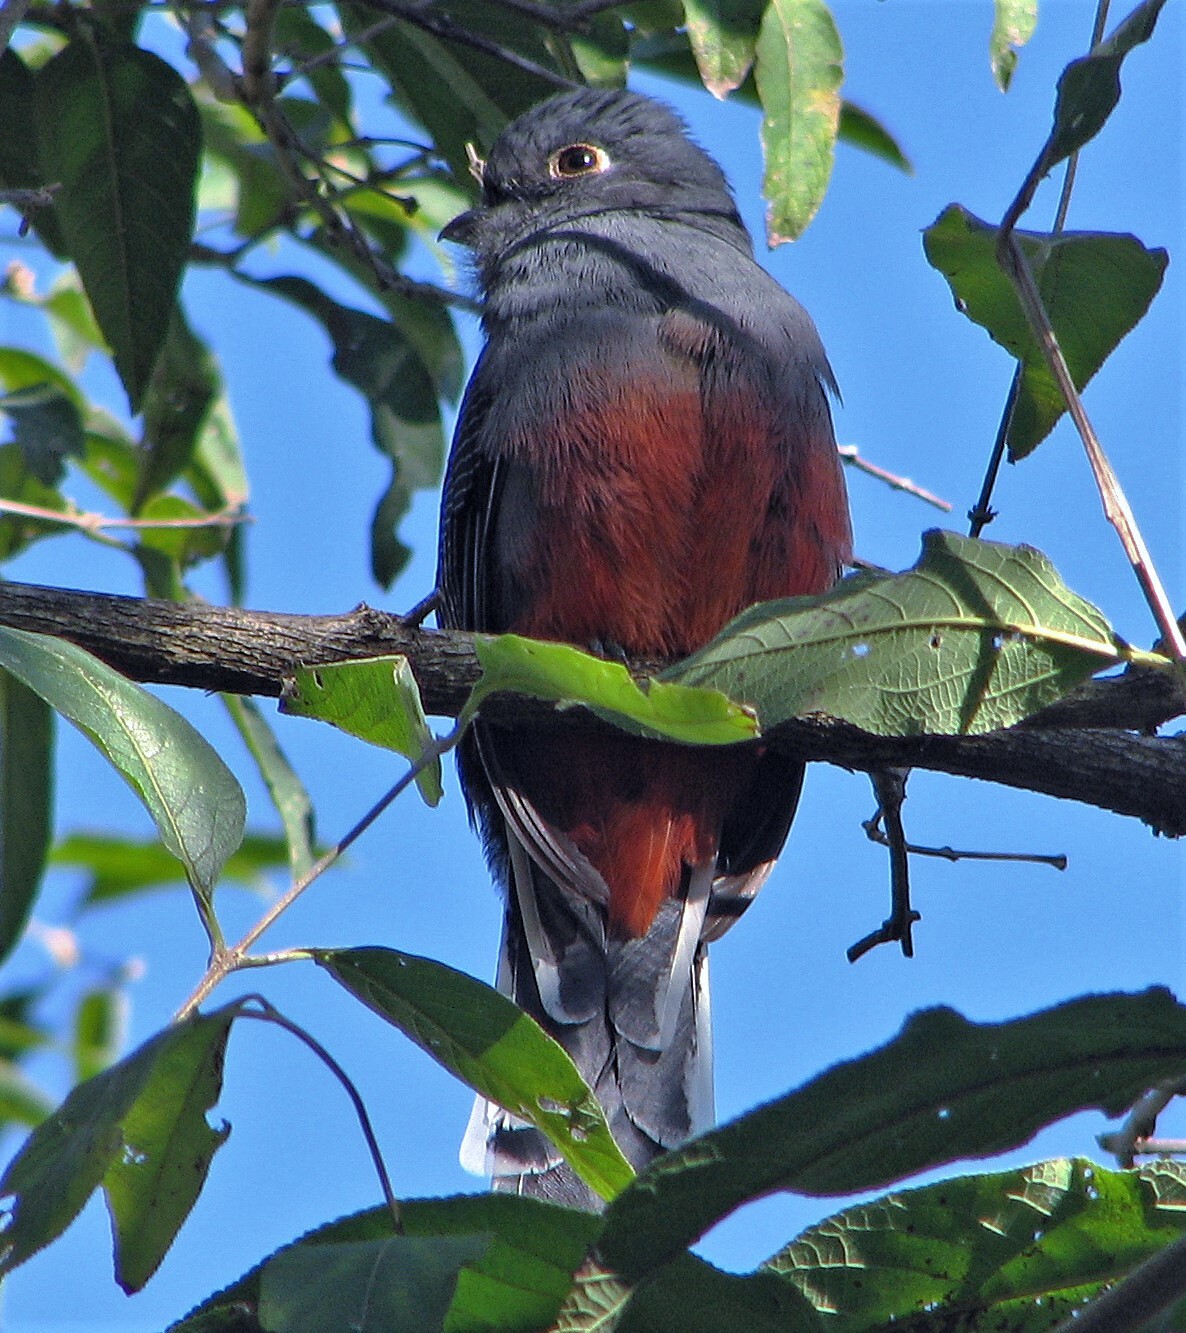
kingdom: Animalia
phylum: Chordata
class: Aves
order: Trogoniformes
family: Trogonidae
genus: Trogon
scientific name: Trogon surrucura
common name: Surucua trogon
